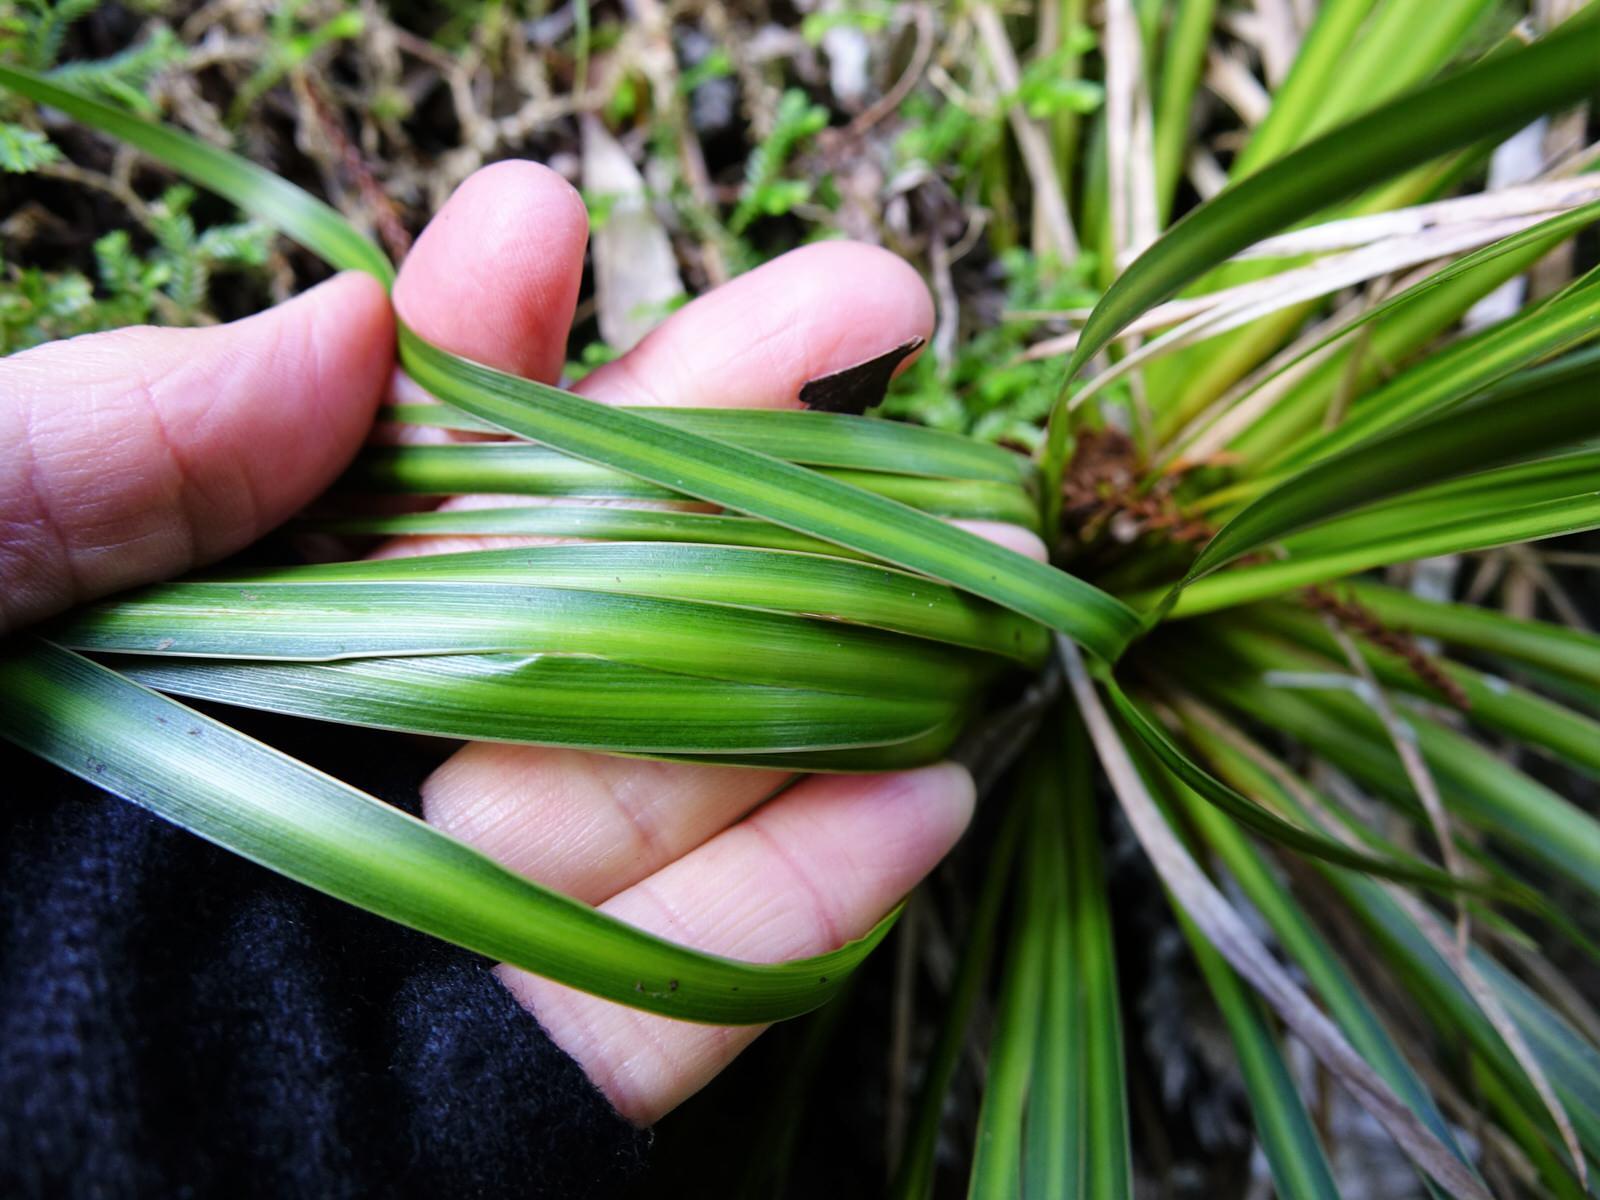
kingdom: Plantae
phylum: Tracheophyta
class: Liliopsida
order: Asparagales
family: Iridaceae
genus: Libertia
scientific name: Libertia ixioides
